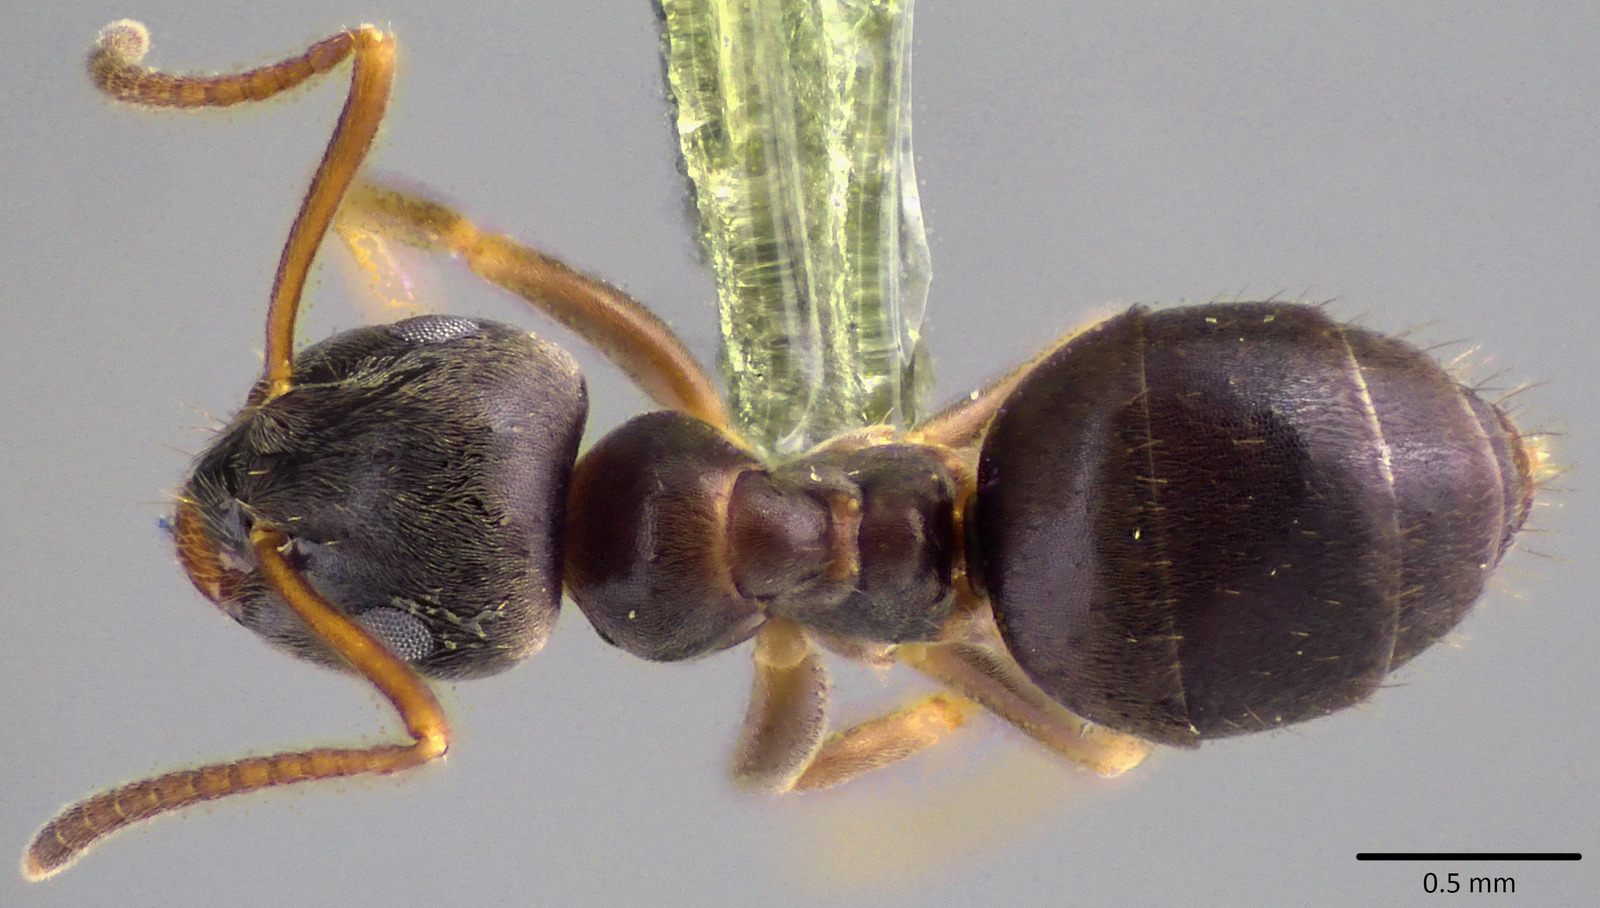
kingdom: Animalia
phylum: Arthropoda
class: Insecta
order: Hymenoptera
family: Formicidae
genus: Lasius
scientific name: Lasius americanus
